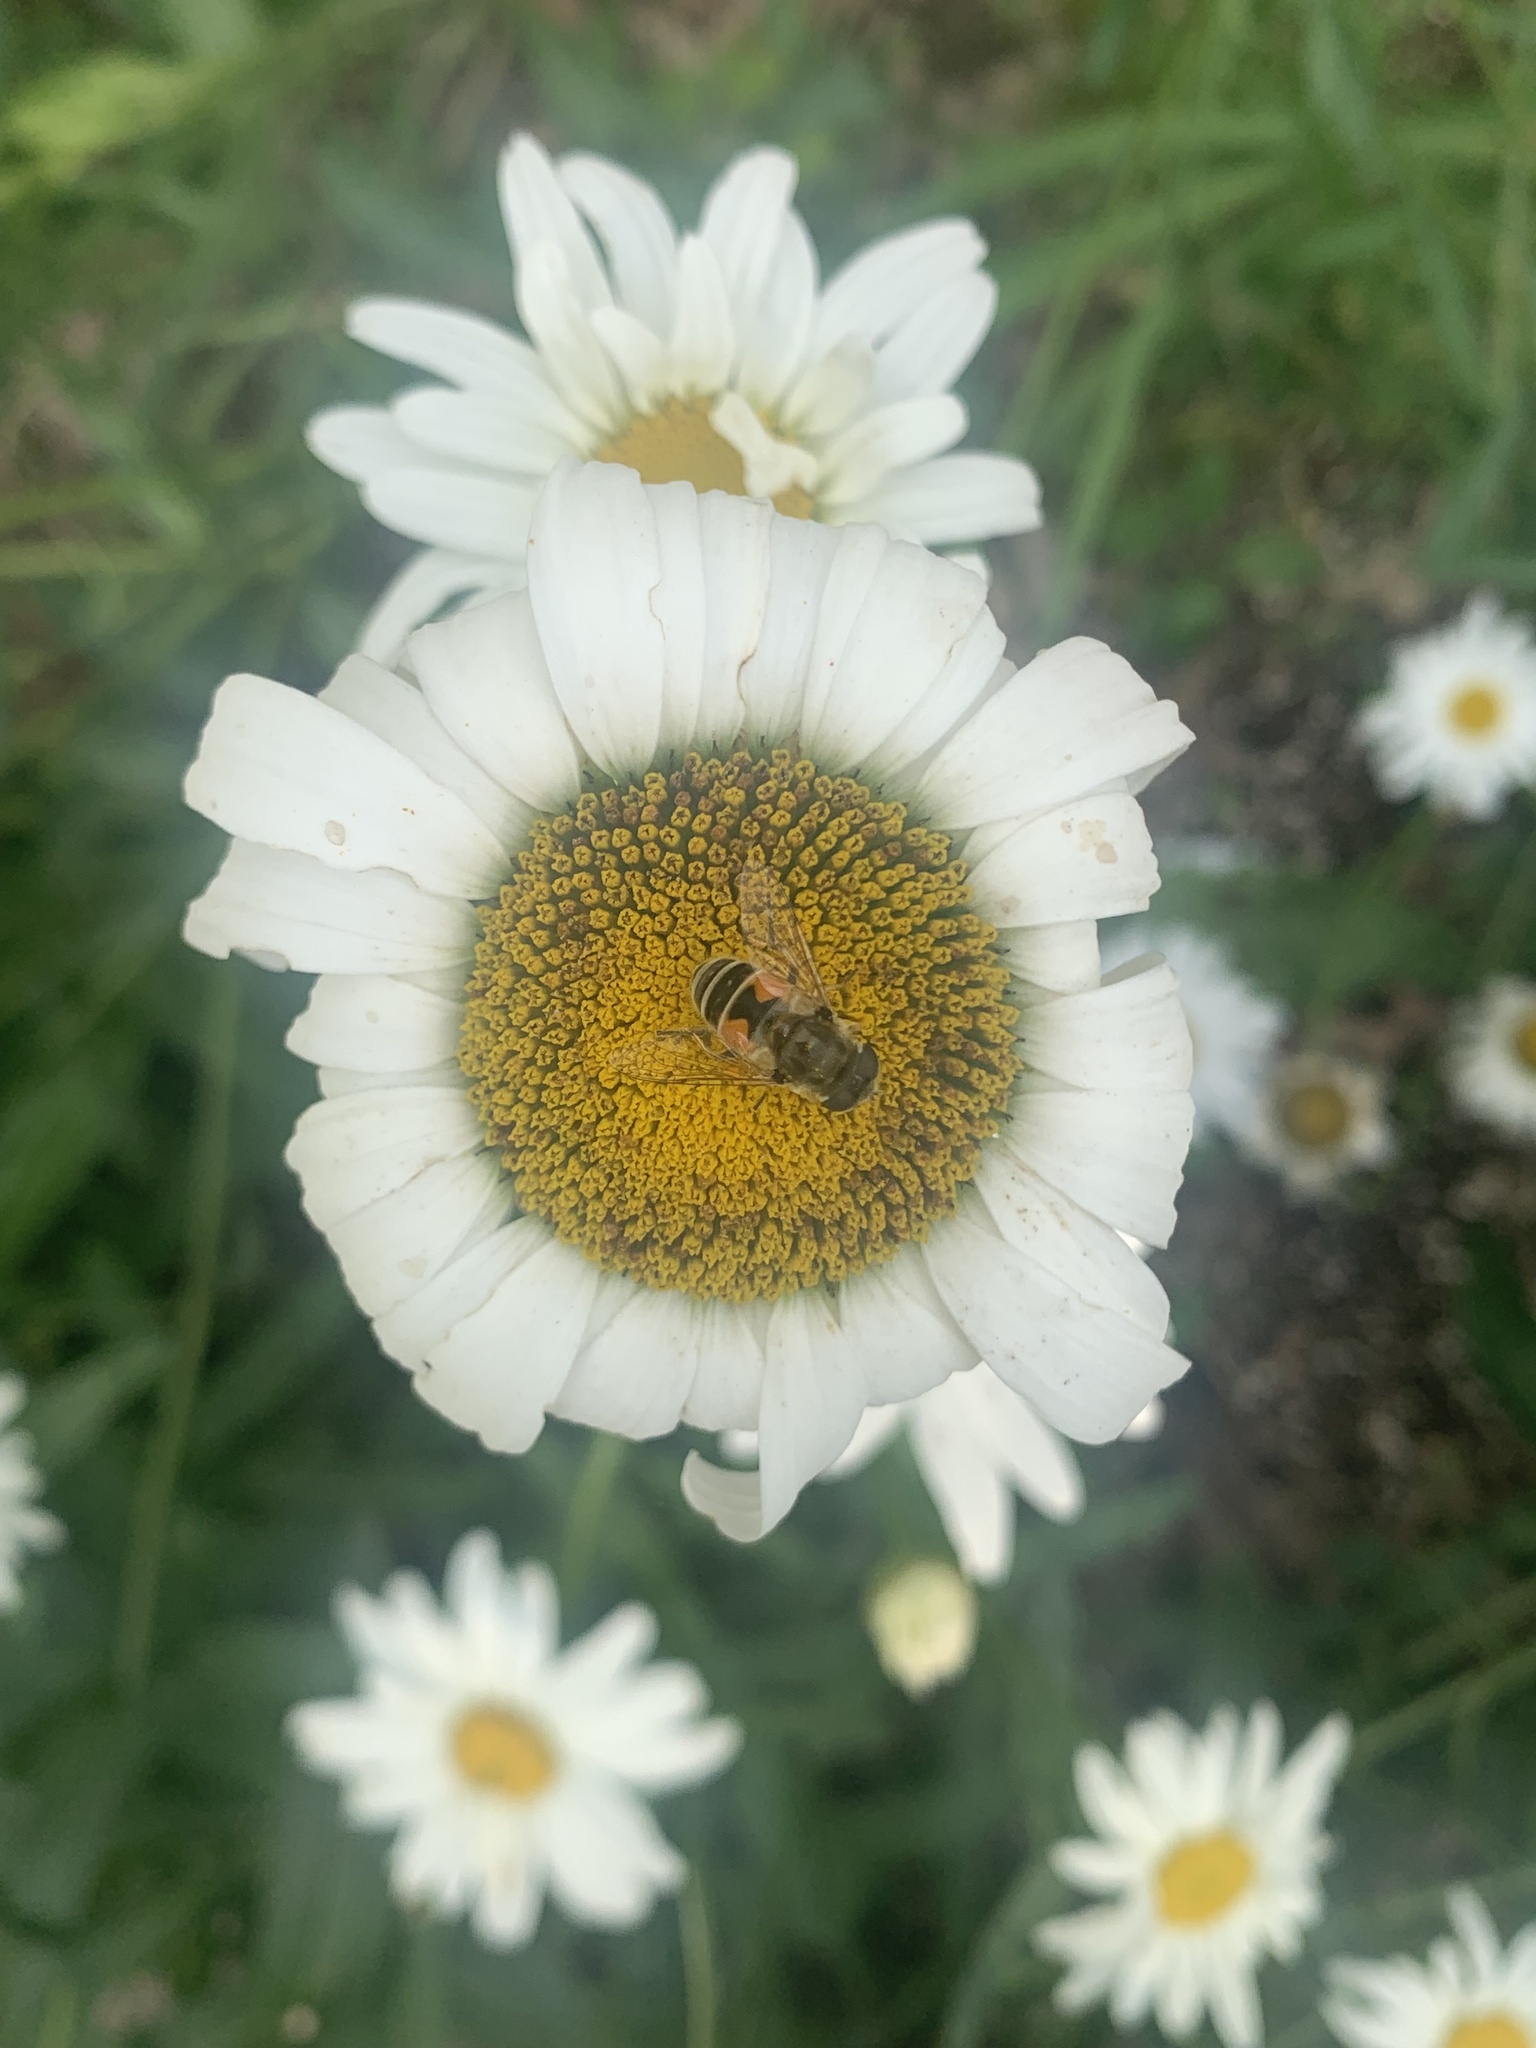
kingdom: Animalia
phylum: Arthropoda
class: Insecta
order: Diptera
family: Syrphidae
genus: Eristalis
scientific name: Eristalis arbustorum
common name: Hover fly
